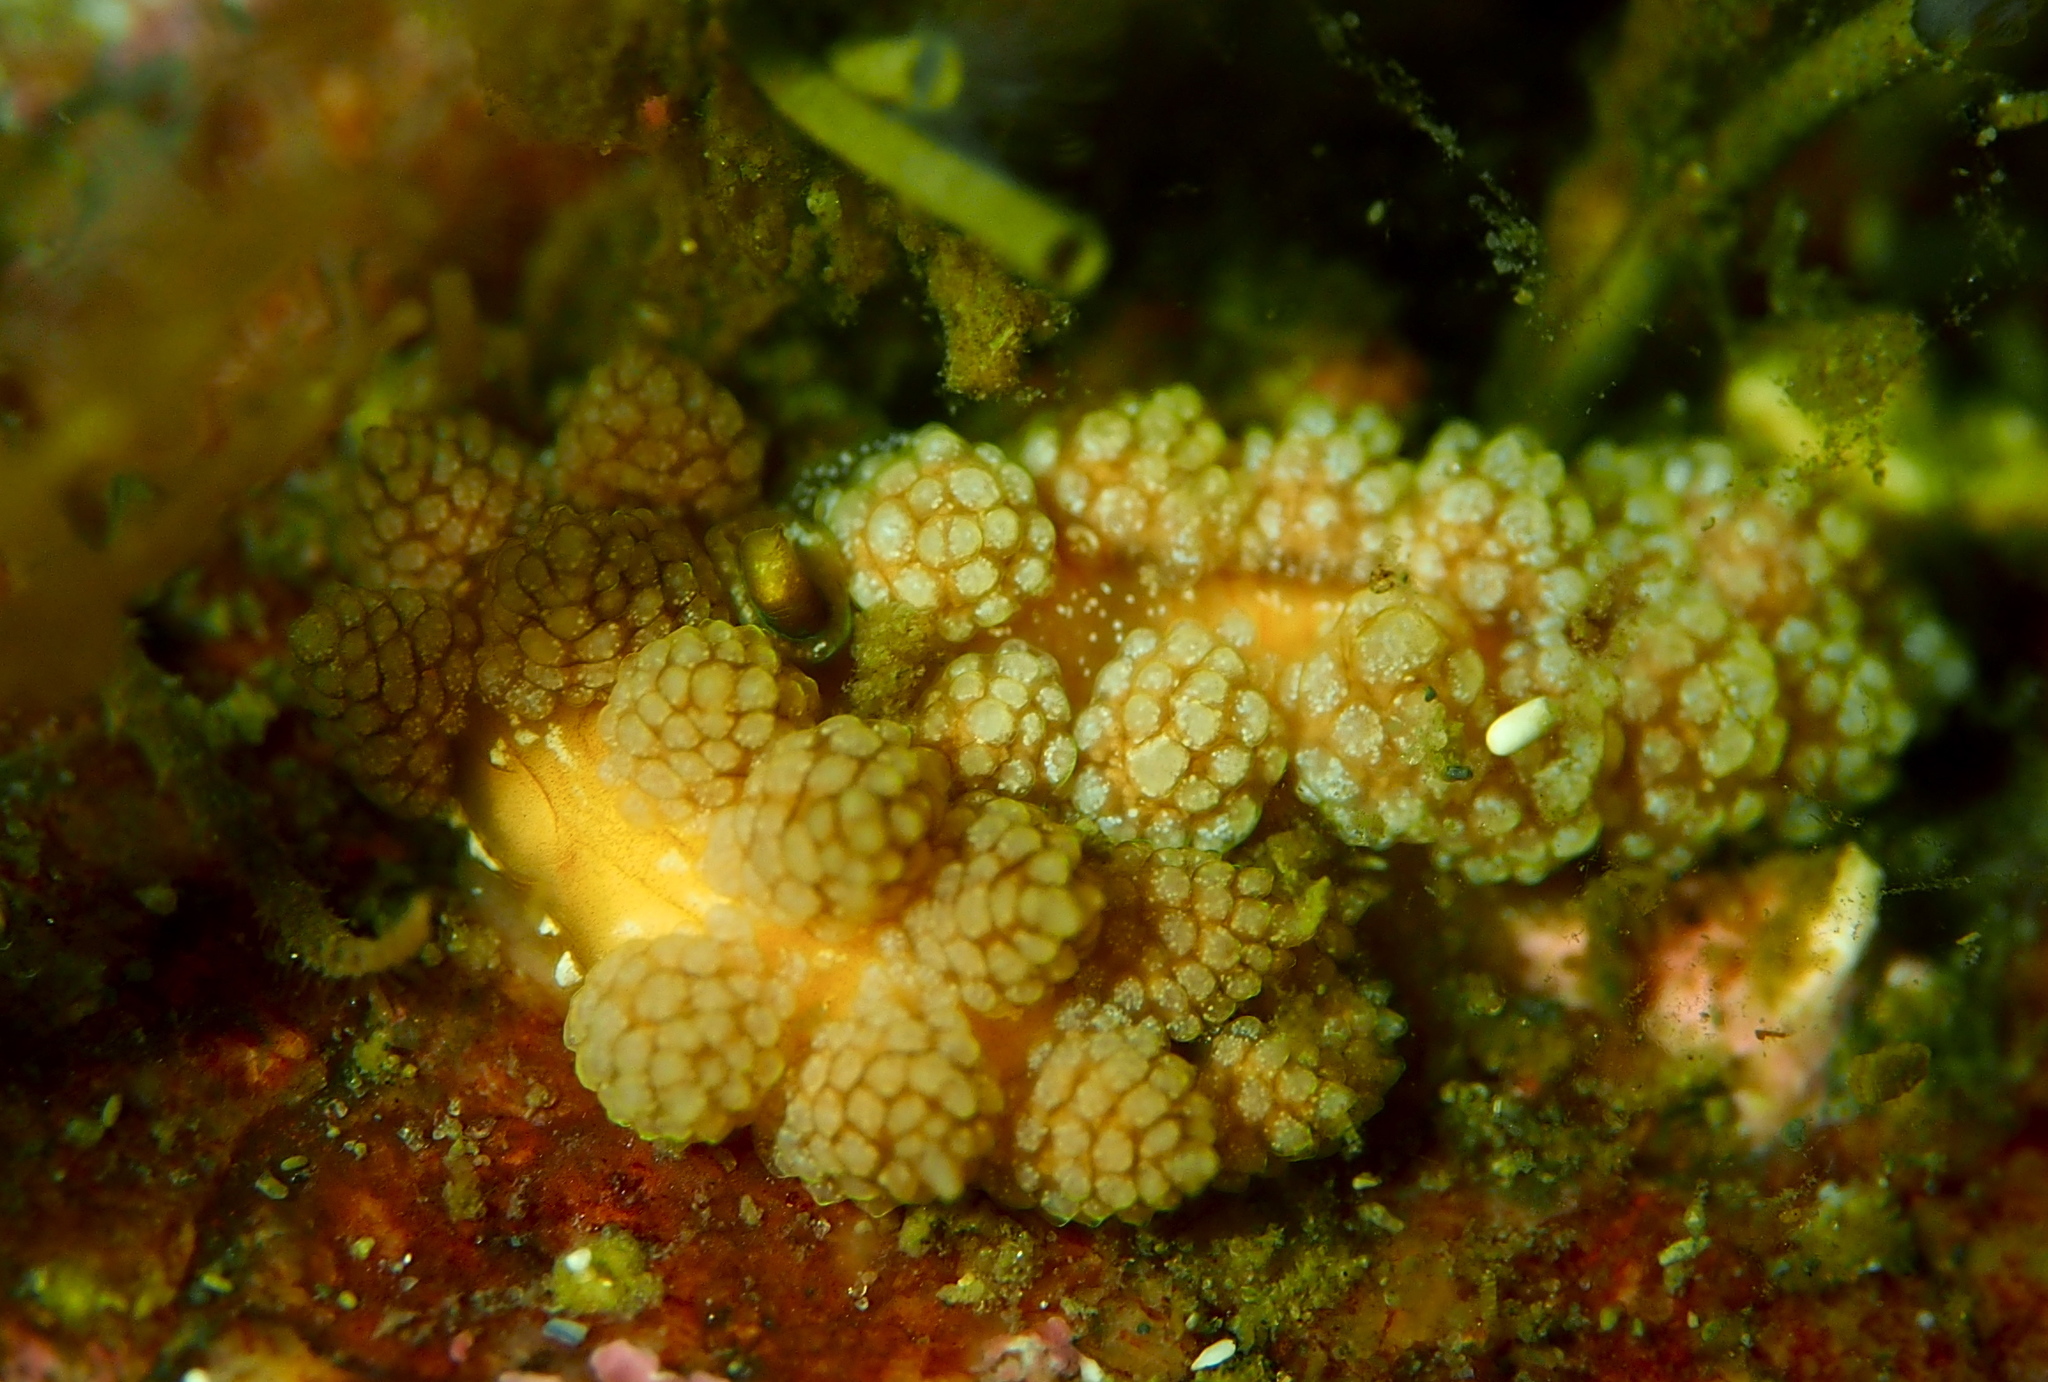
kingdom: Animalia
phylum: Mollusca
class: Gastropoda
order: Nudibranchia
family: Dotidae
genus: Doto
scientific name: Doto fragilis
